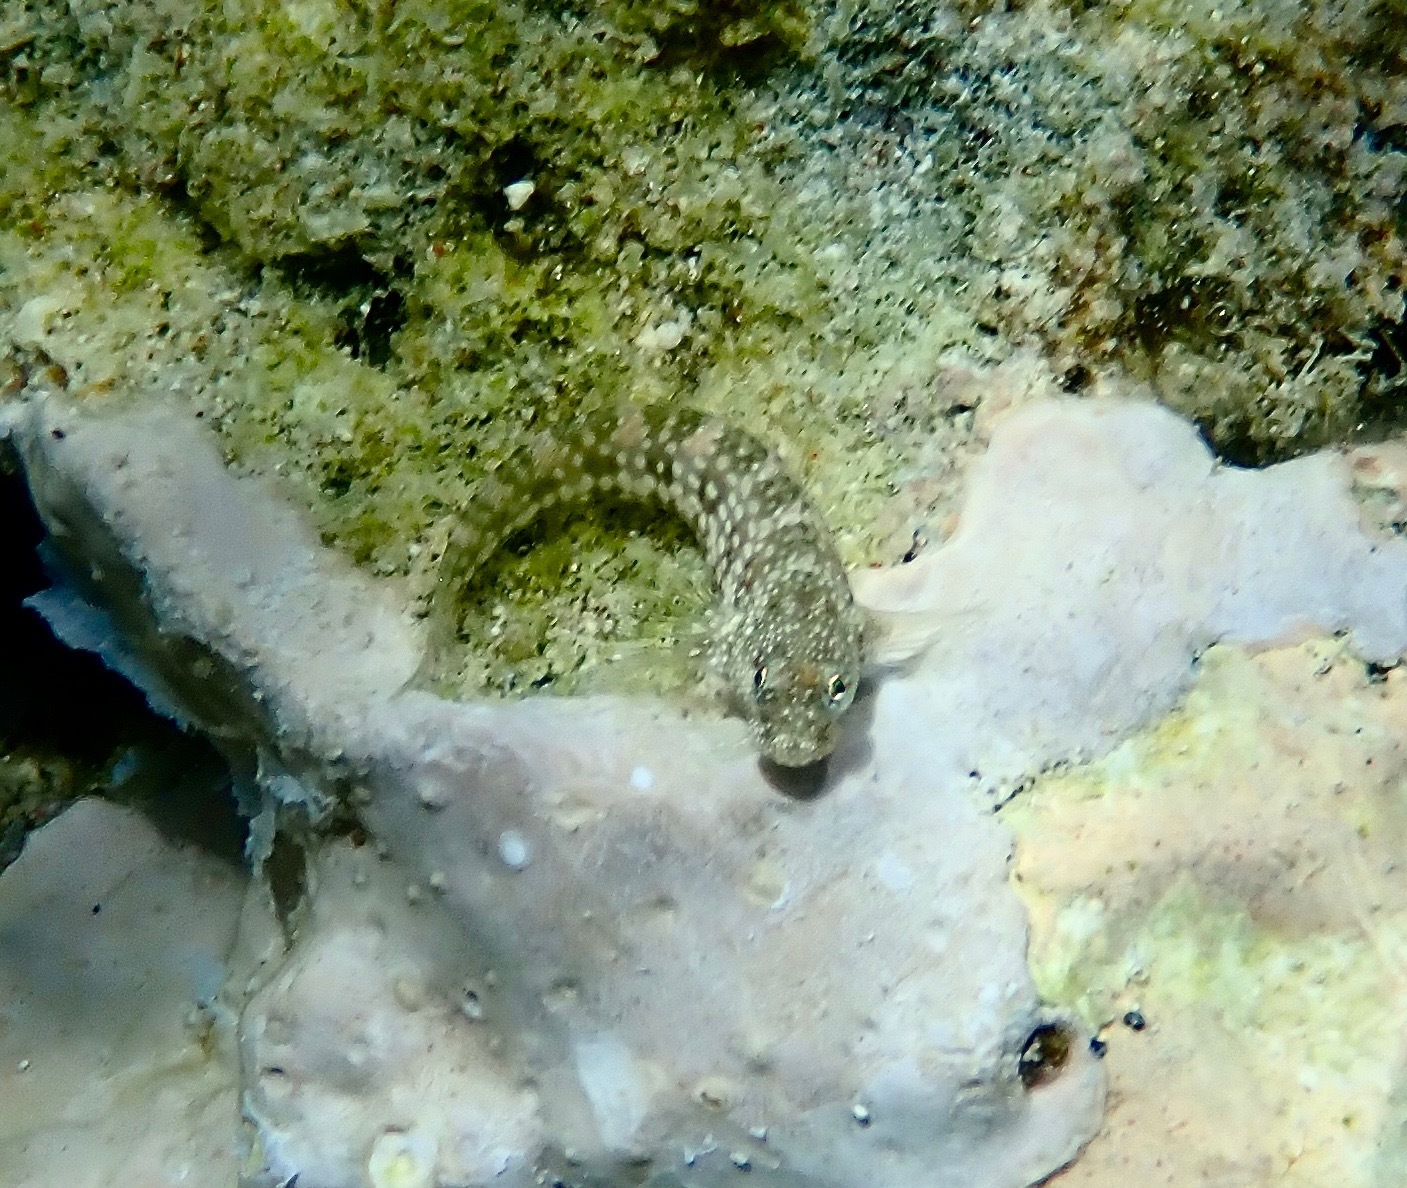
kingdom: Animalia
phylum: Chordata
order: Perciformes
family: Blenniidae
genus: Salarias
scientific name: Salarias alboguttatus
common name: White-spotted blenny
